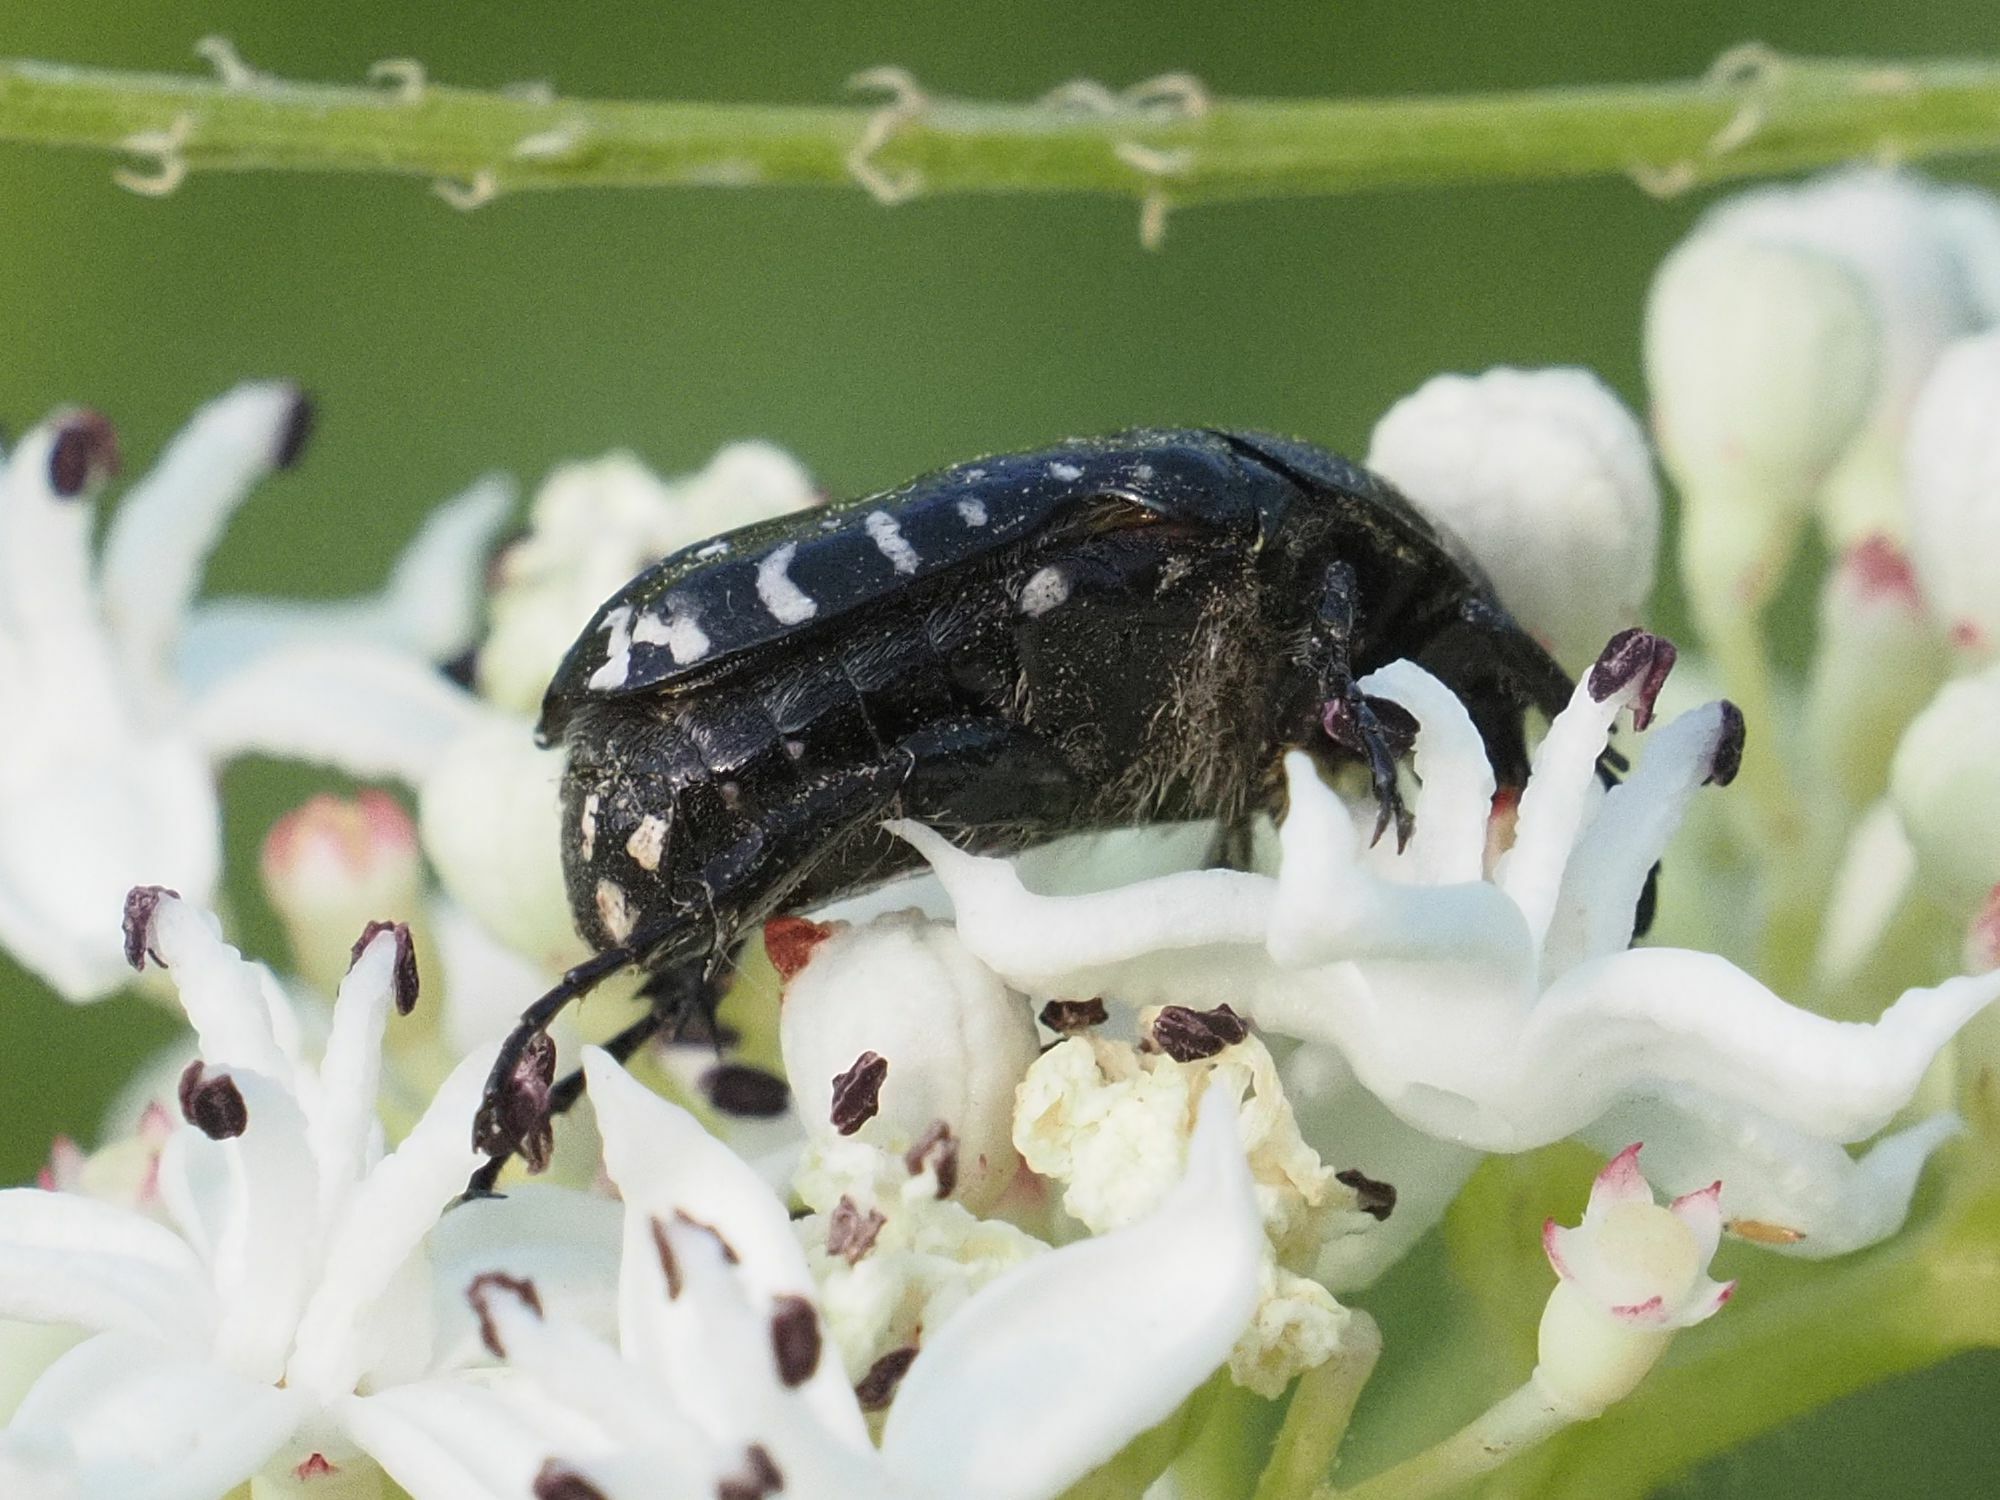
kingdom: Animalia
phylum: Arthropoda
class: Insecta
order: Coleoptera
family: Scarabaeidae
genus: Oxythyrea
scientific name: Oxythyrea funesta
